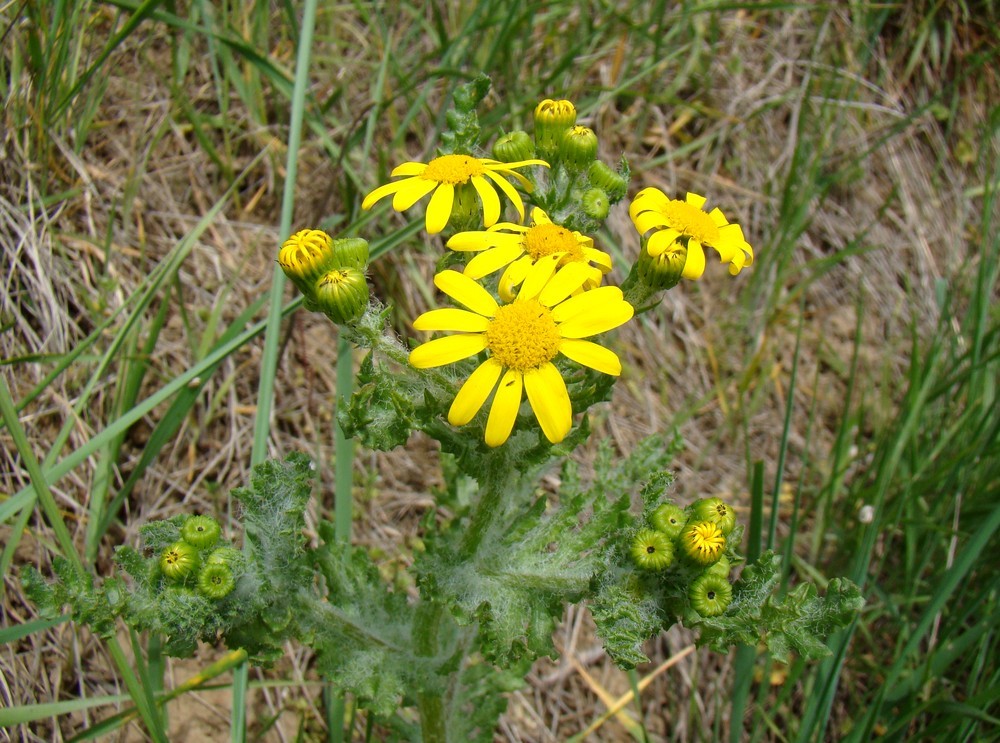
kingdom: Plantae
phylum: Tracheophyta
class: Magnoliopsida
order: Asterales
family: Asteraceae
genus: Senecio
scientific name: Senecio vernalis
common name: Eastern groundsel
